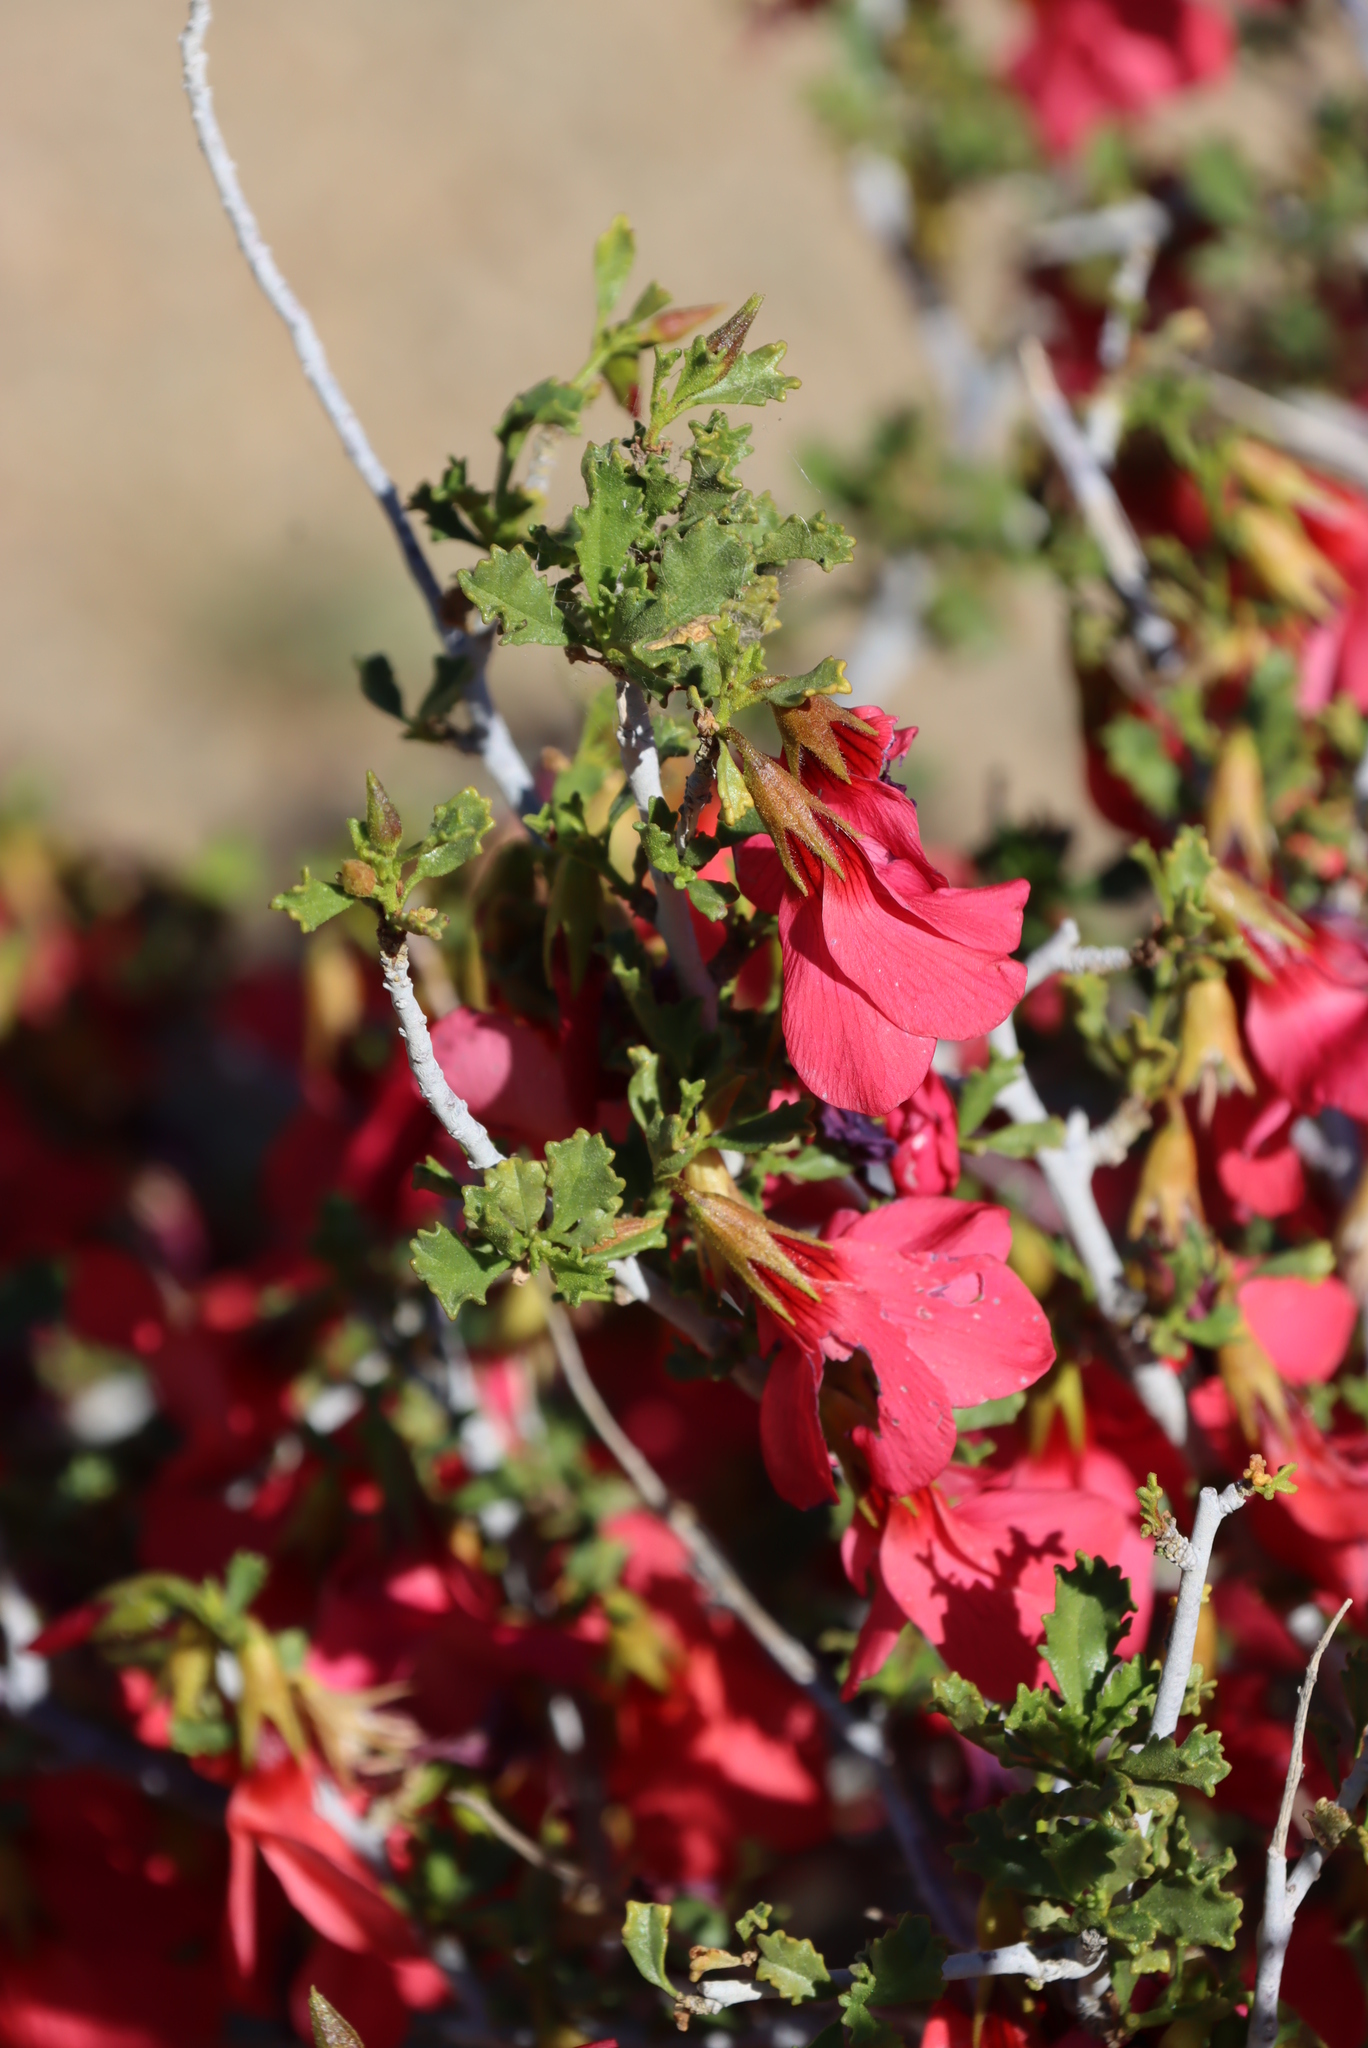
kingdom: Plantae
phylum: Tracheophyta
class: Magnoliopsida
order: Malvales
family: Malvaceae
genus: Hermannia
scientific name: Hermannia stricta
